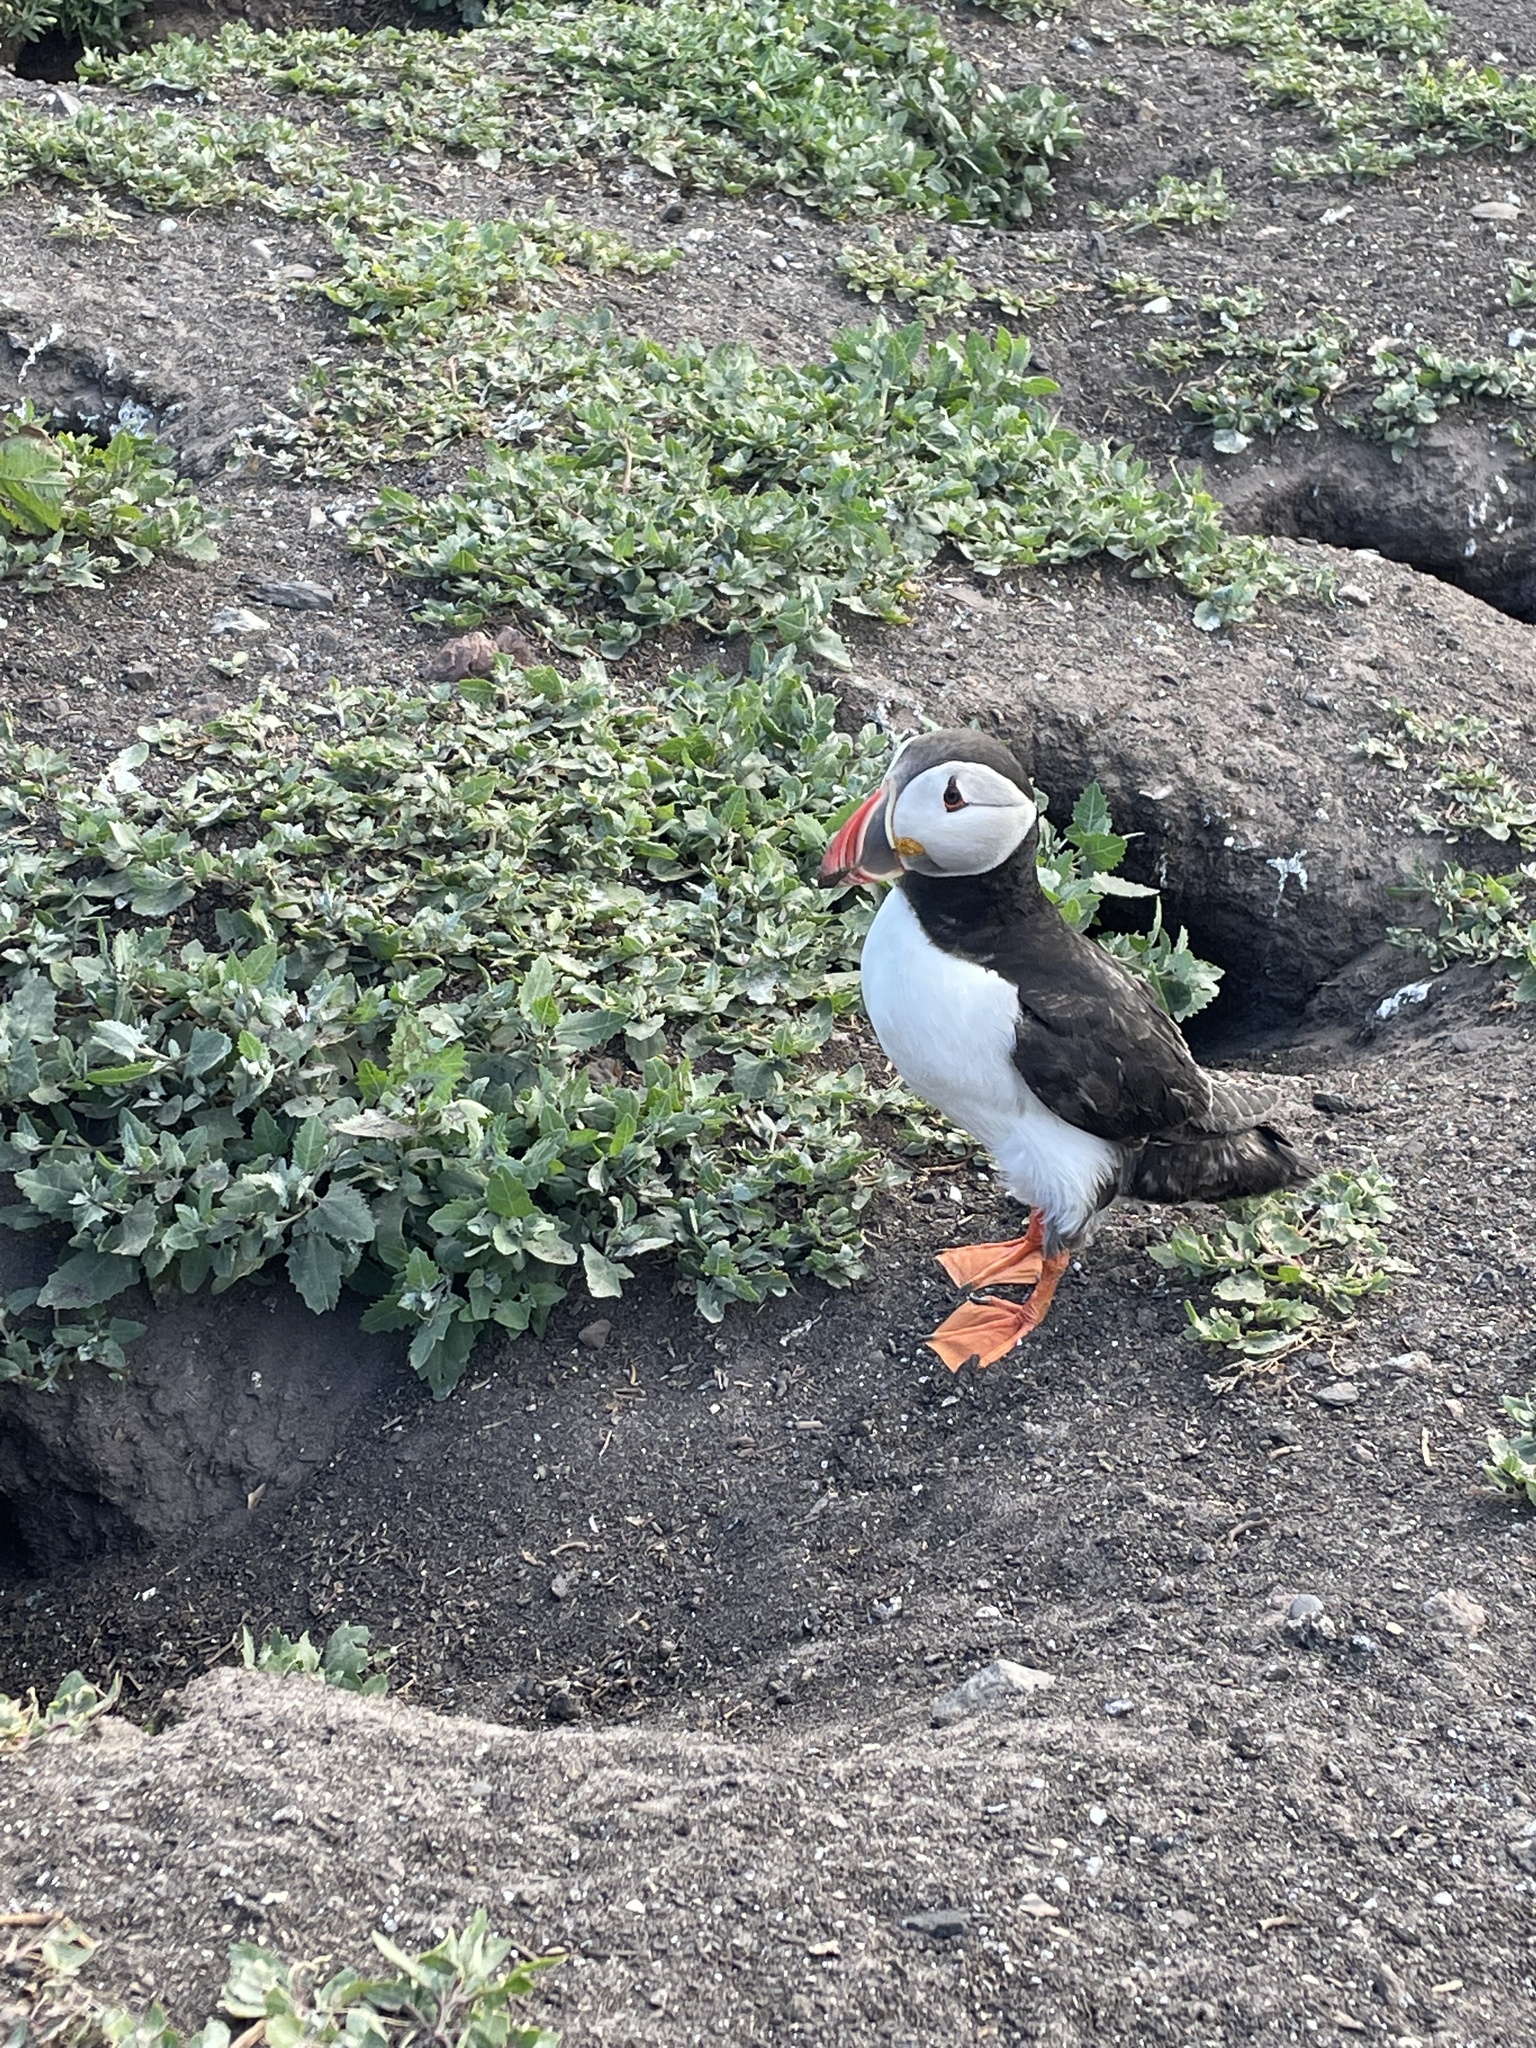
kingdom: Animalia
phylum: Chordata
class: Aves
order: Charadriiformes
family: Alcidae
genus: Fratercula
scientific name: Fratercula arctica
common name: Atlantic puffin
